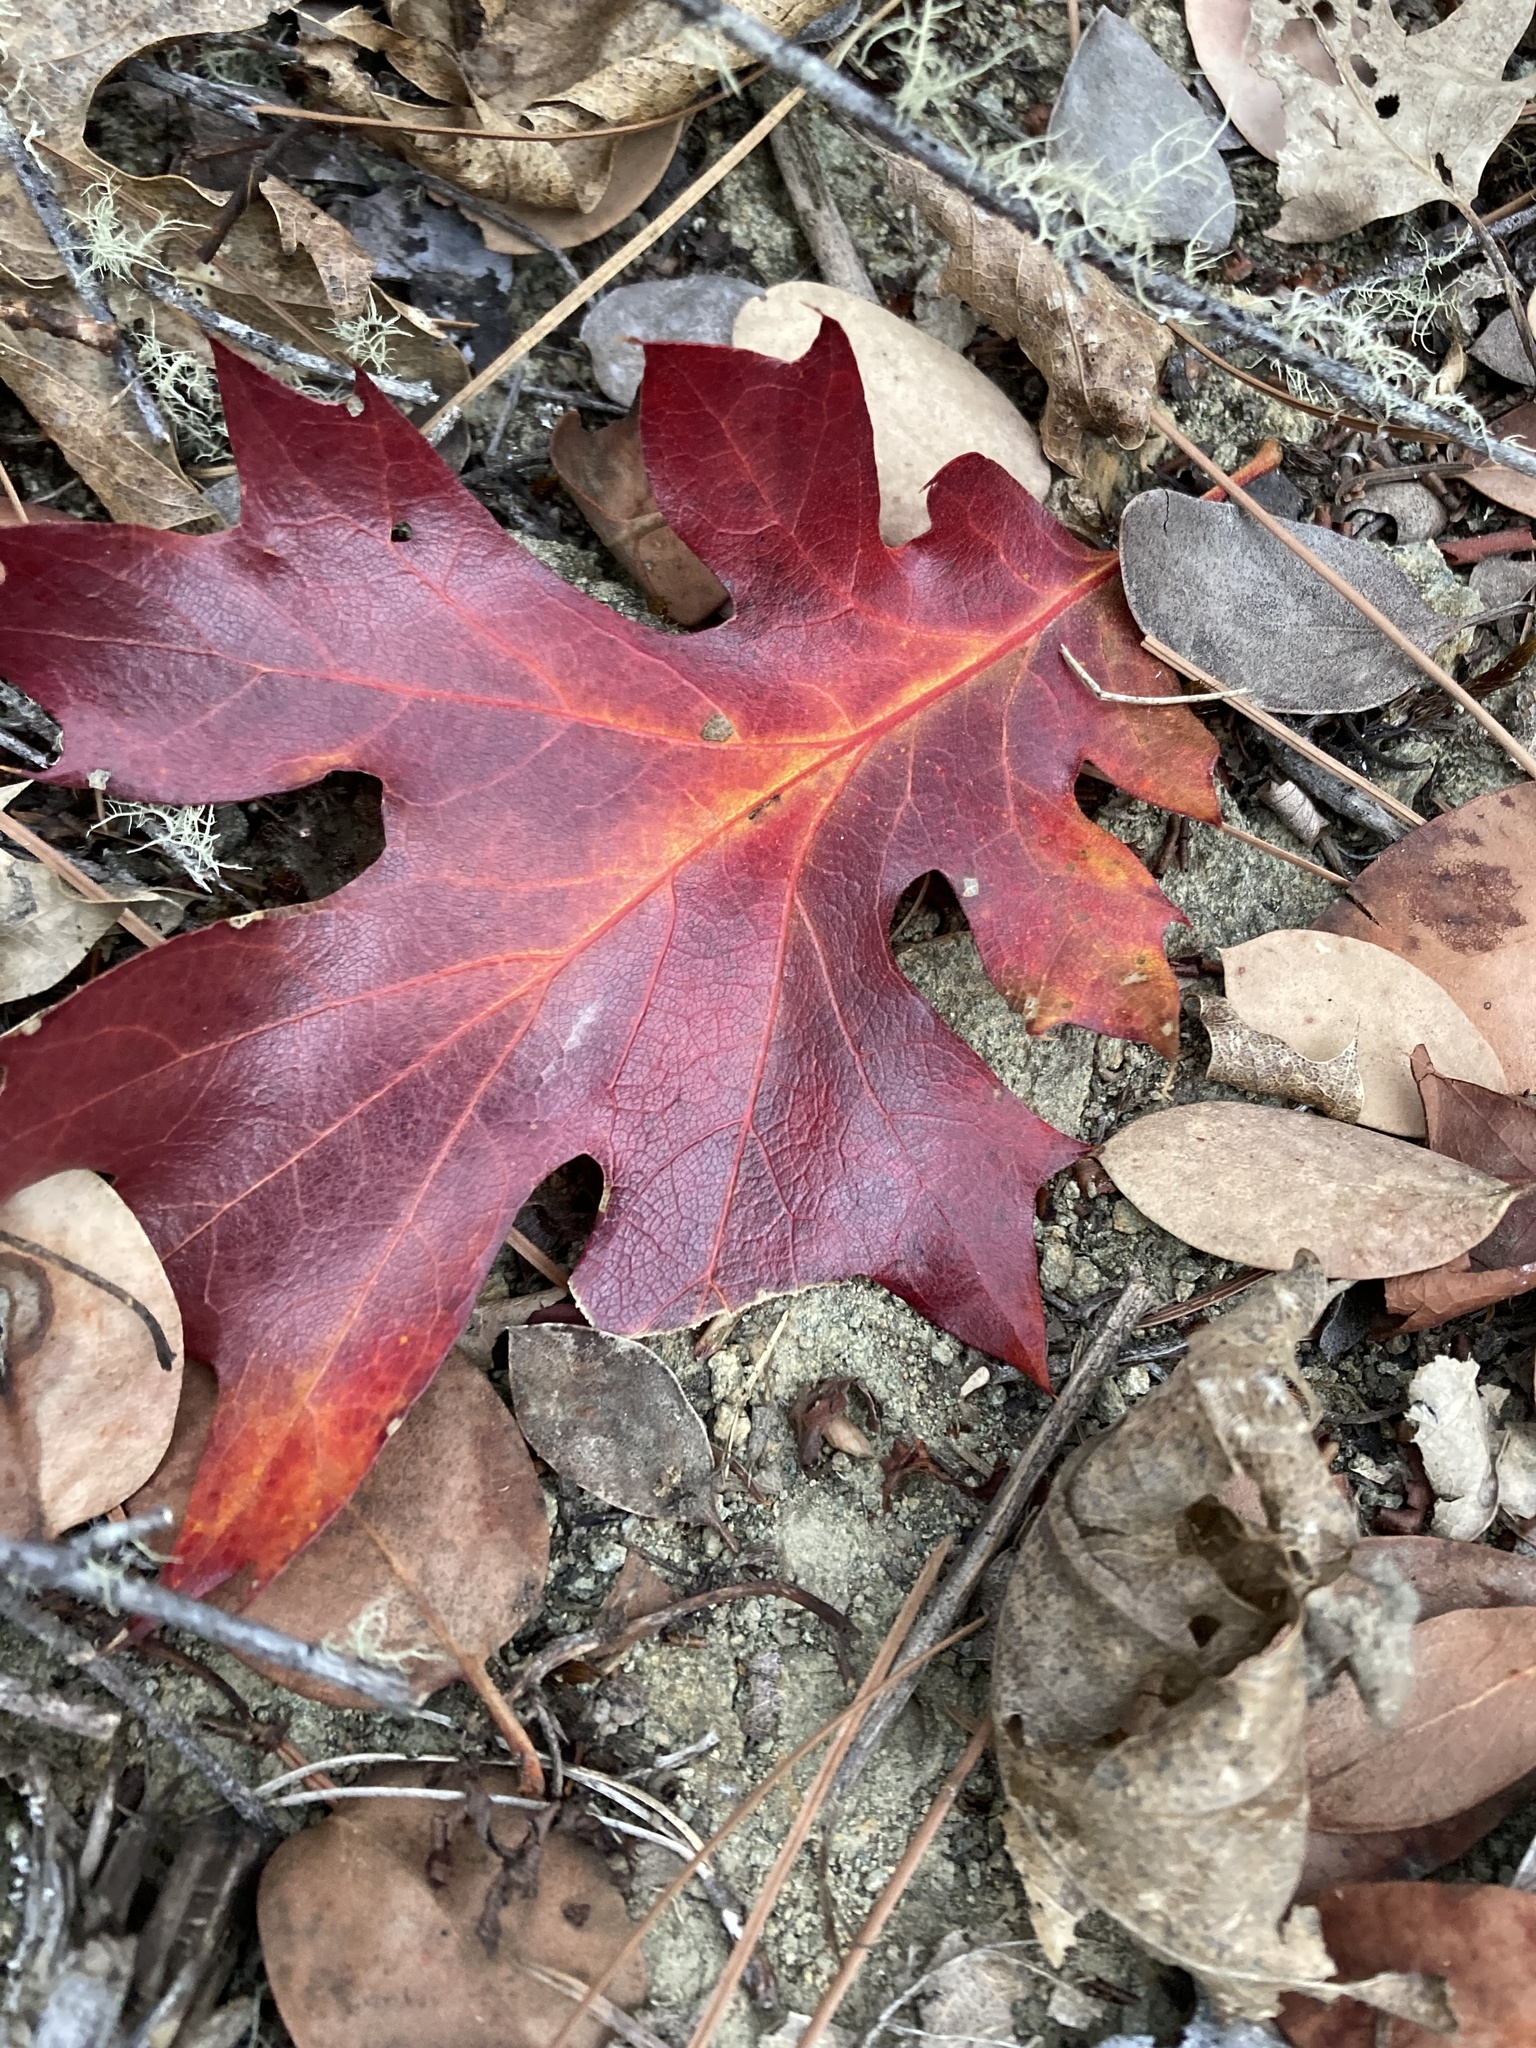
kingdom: Plantae
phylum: Tracheophyta
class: Magnoliopsida
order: Fagales
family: Fagaceae
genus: Quercus
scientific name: Quercus rubra
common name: Red oak
